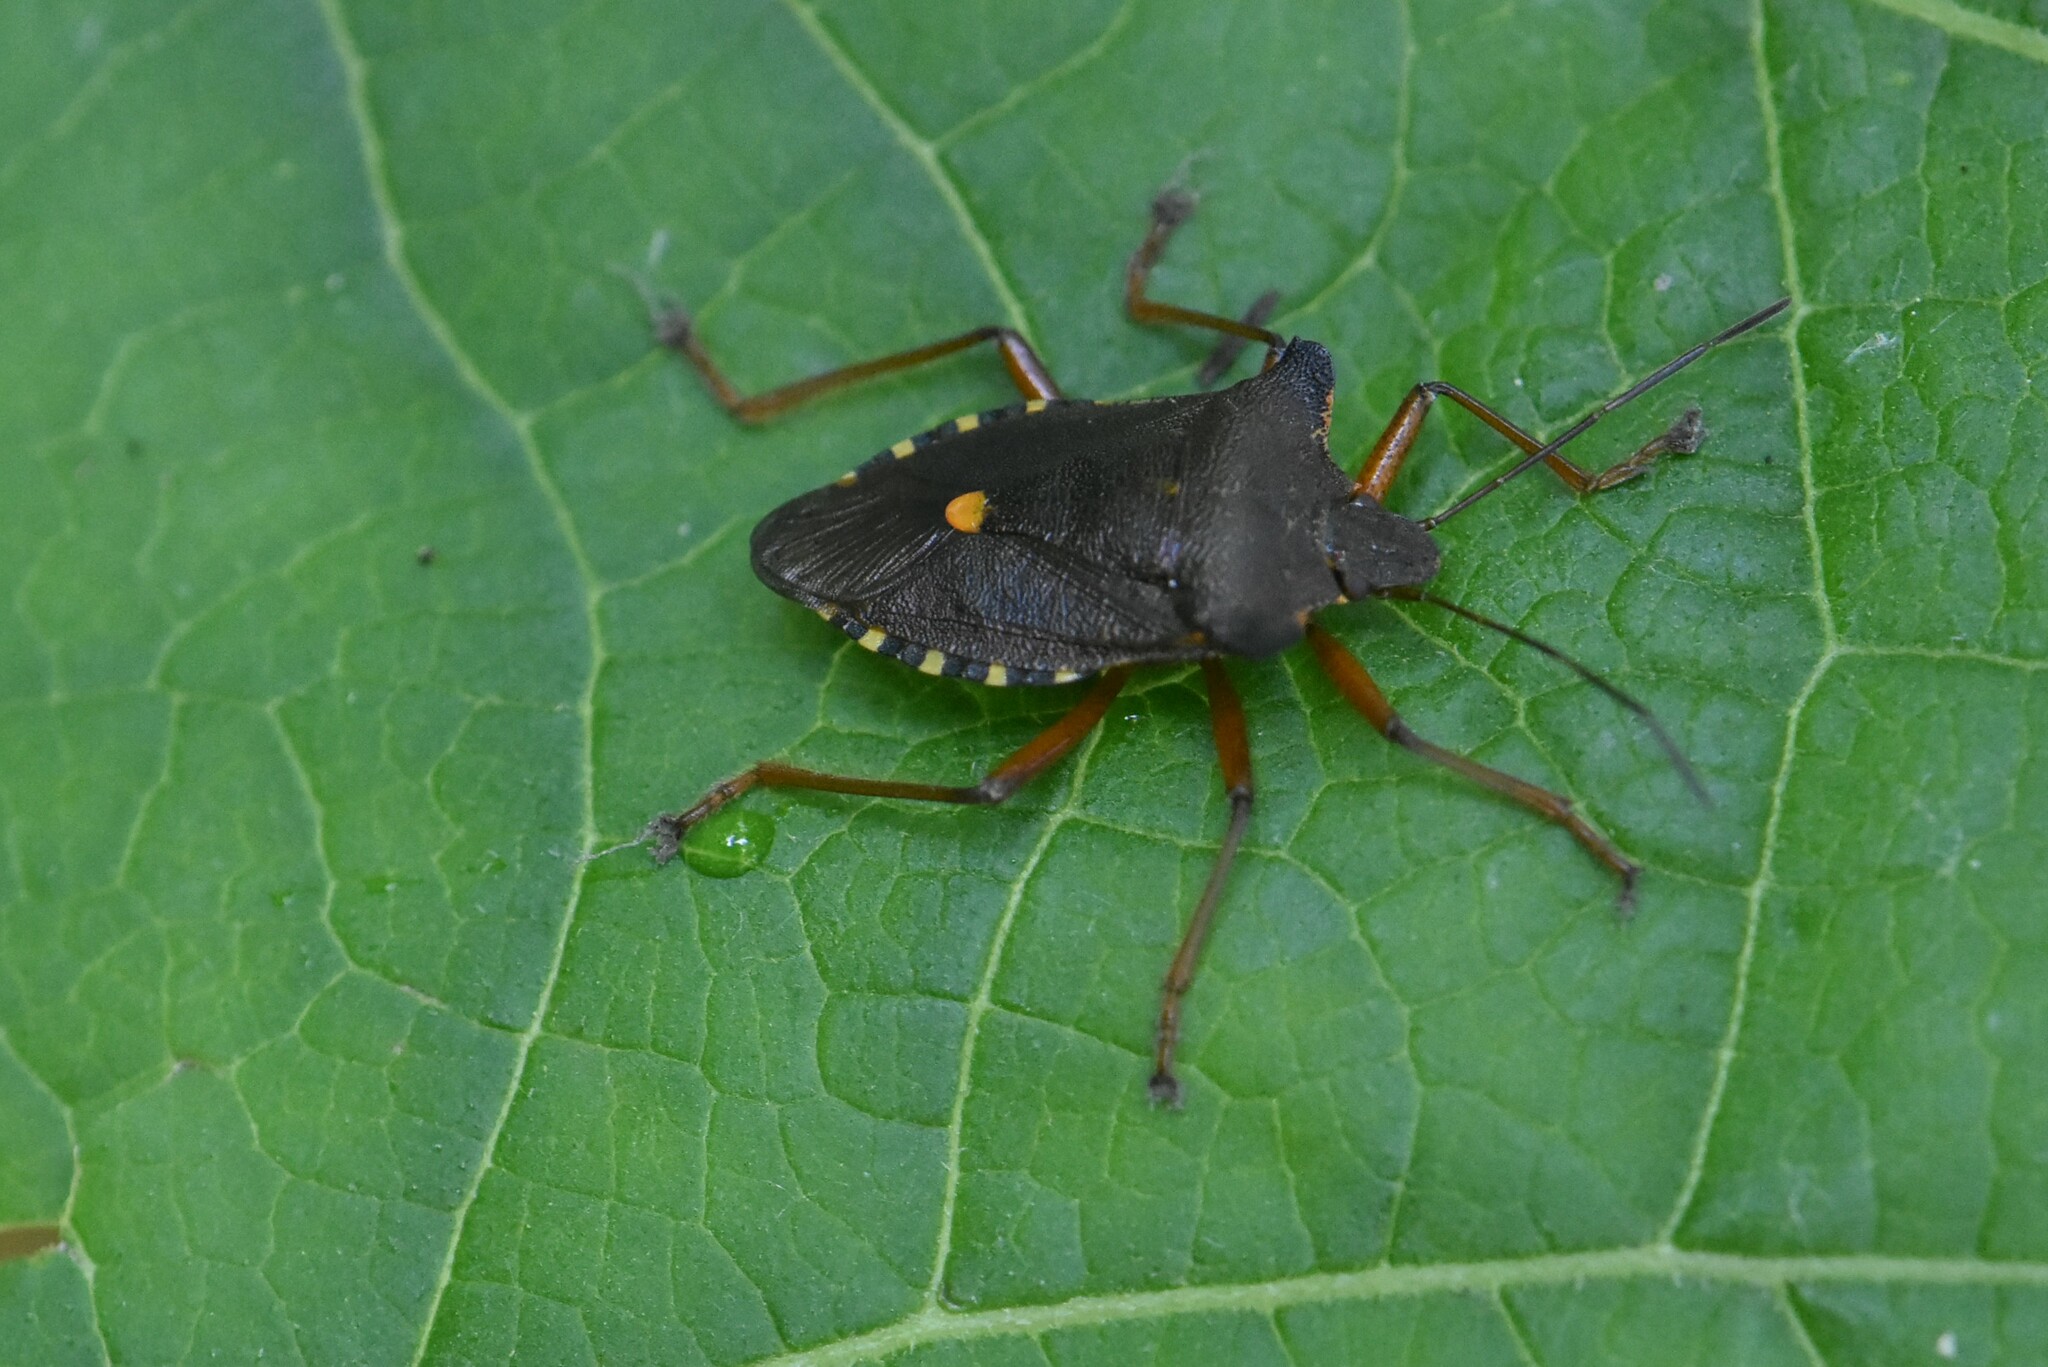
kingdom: Animalia
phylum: Arthropoda
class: Insecta
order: Hemiptera
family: Pentatomidae
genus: Pentatoma
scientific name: Pentatoma rufipes
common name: Forest bug
